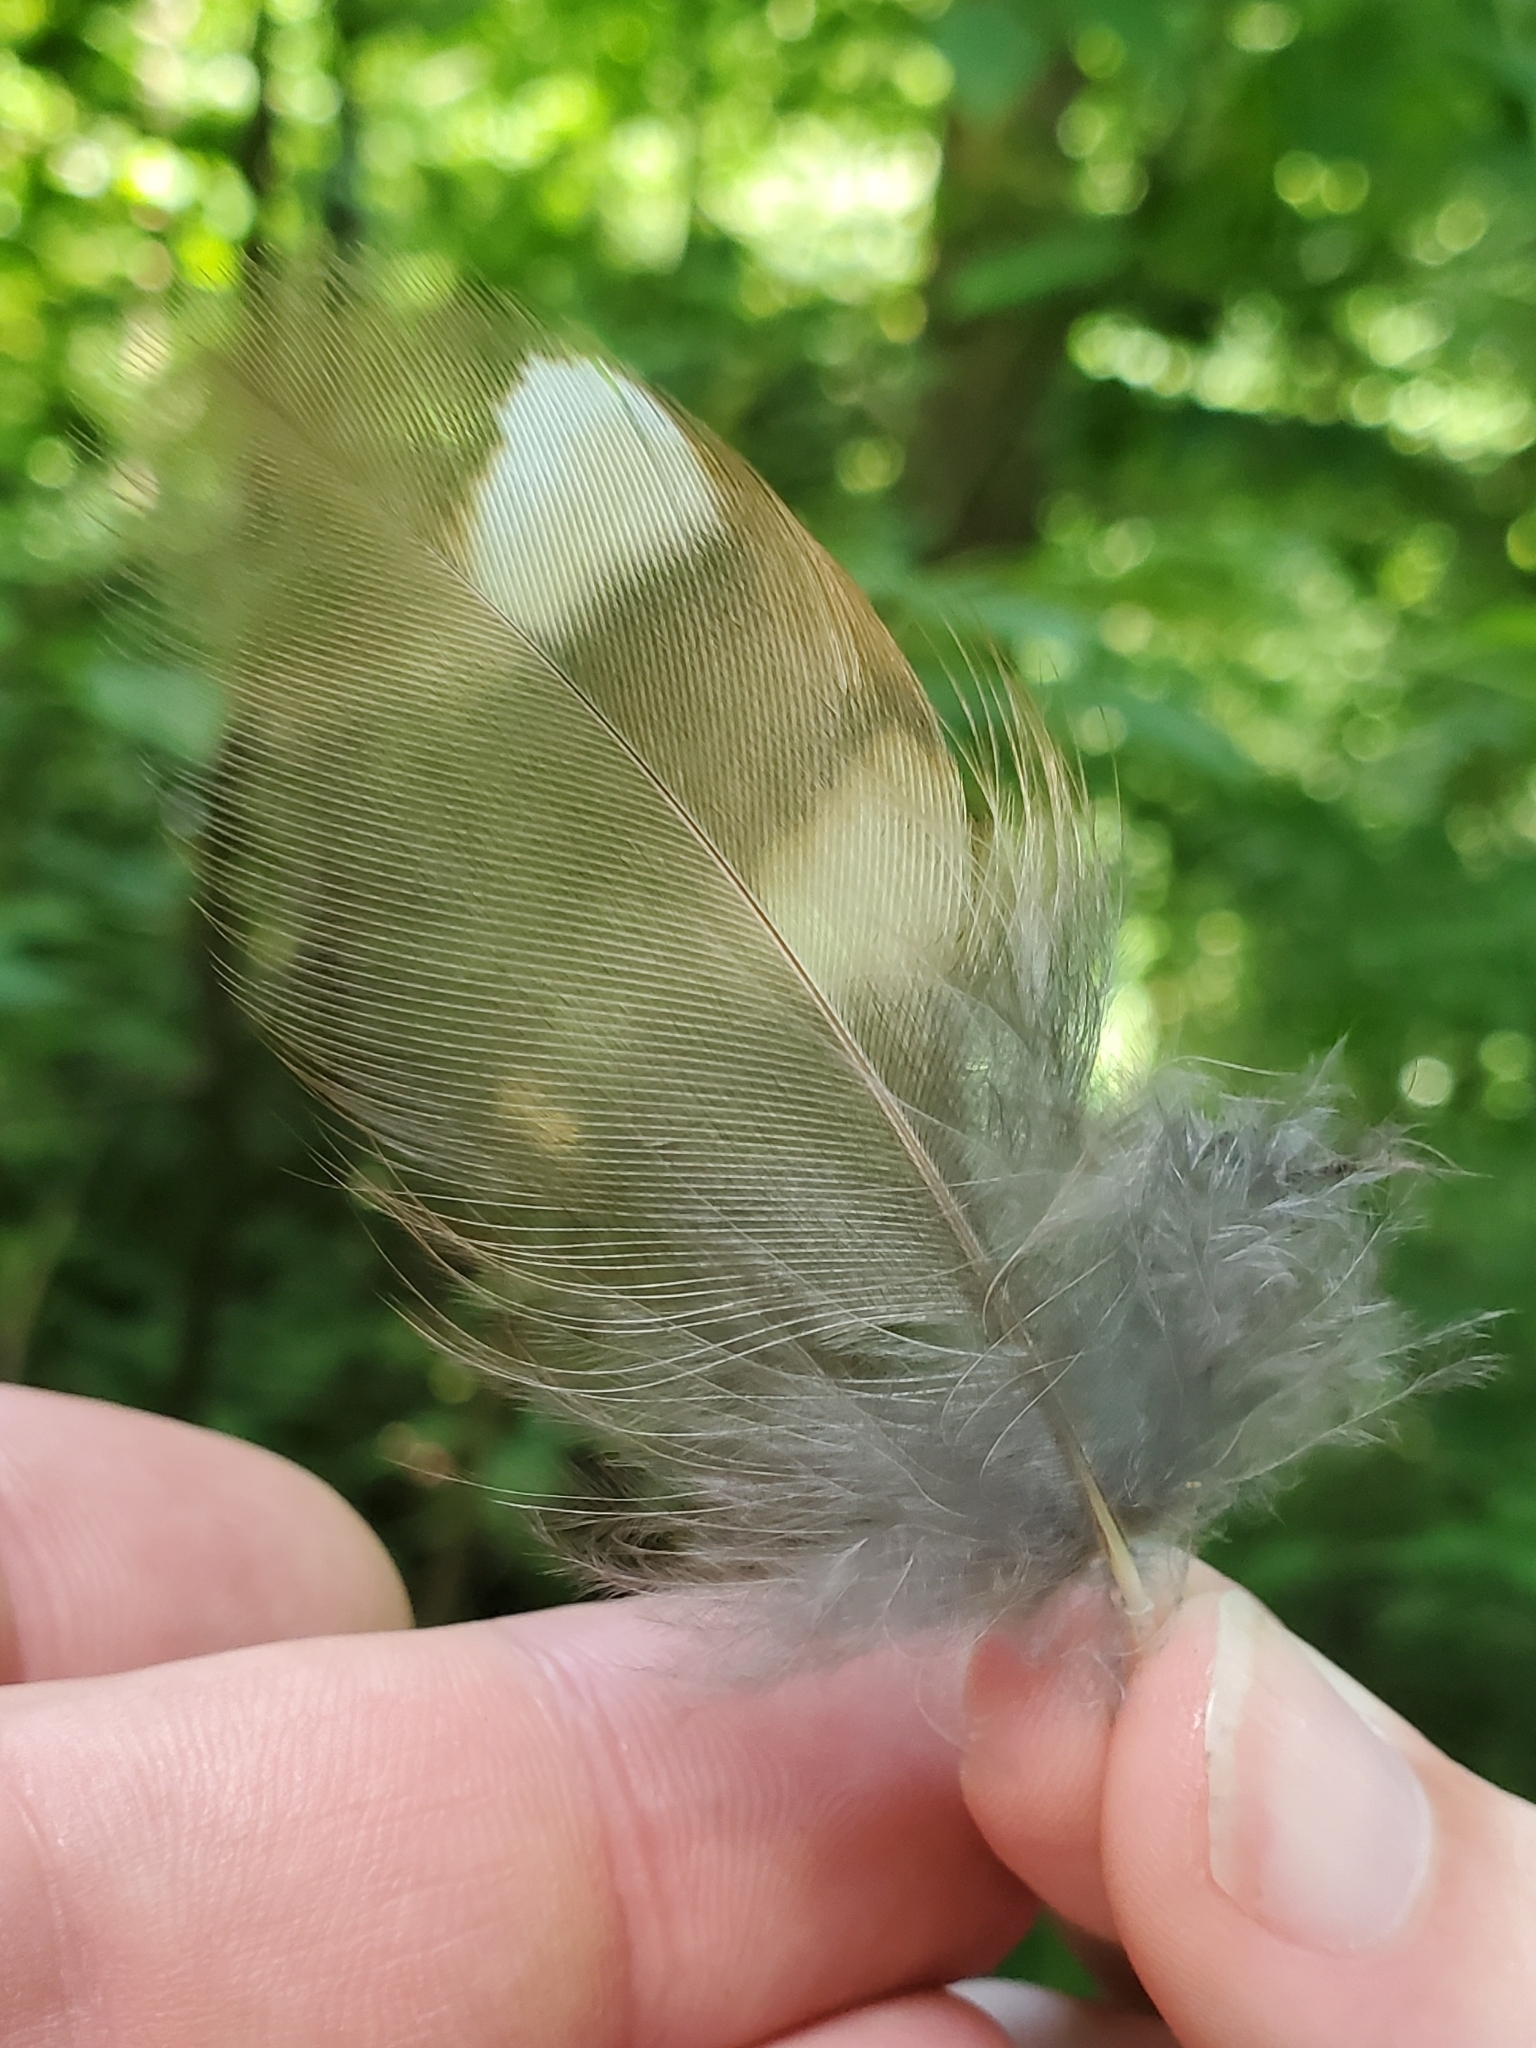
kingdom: Animalia
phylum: Chordata
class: Aves
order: Strigiformes
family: Strigidae
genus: Strix
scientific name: Strix varia
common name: Barred owl
